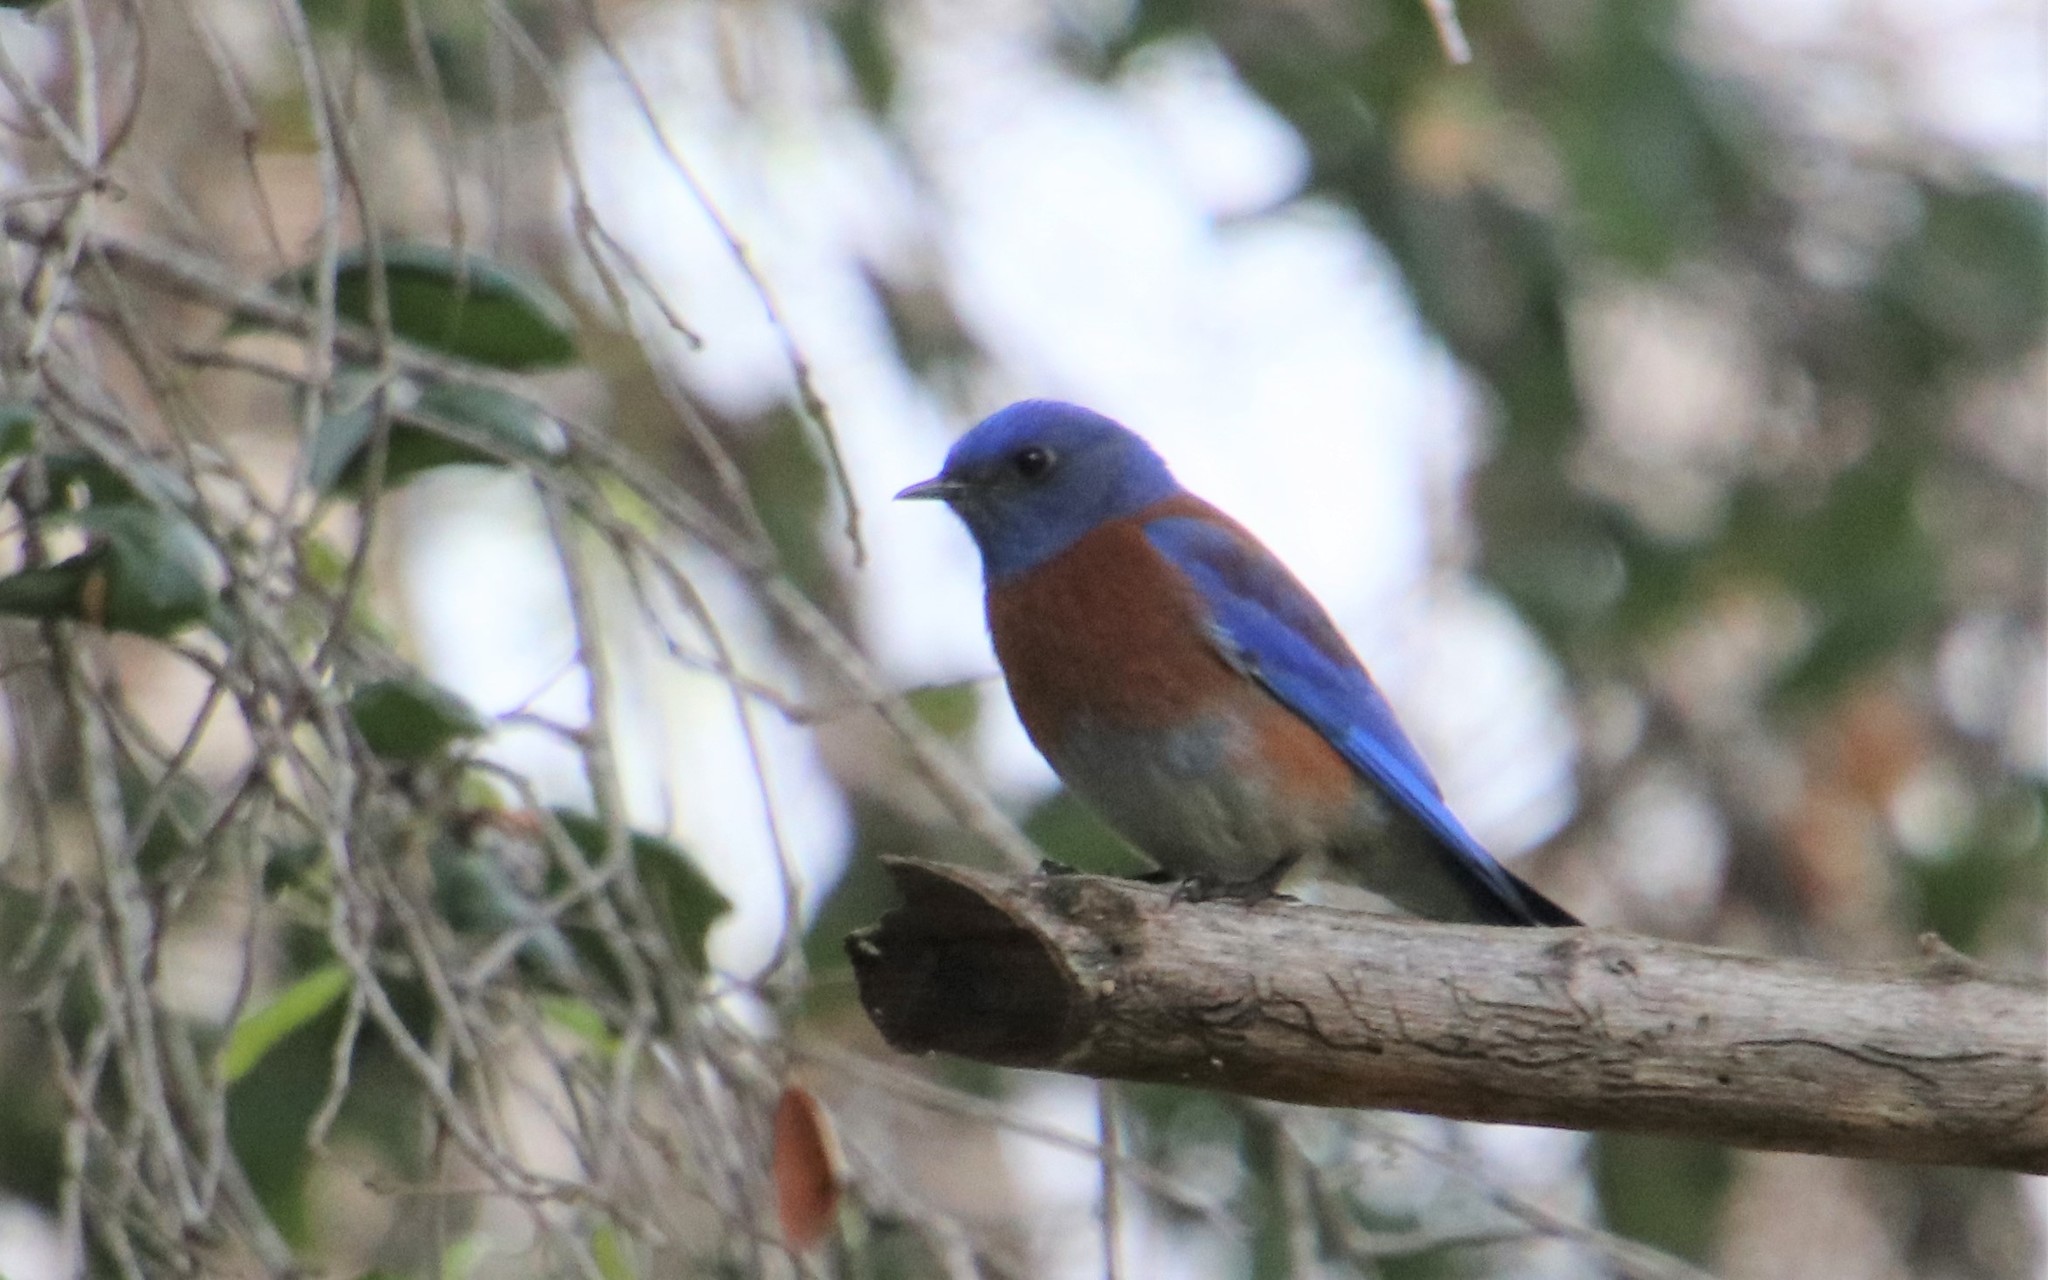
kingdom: Animalia
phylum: Chordata
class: Aves
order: Passeriformes
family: Turdidae
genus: Sialia
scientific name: Sialia mexicana
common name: Western bluebird
